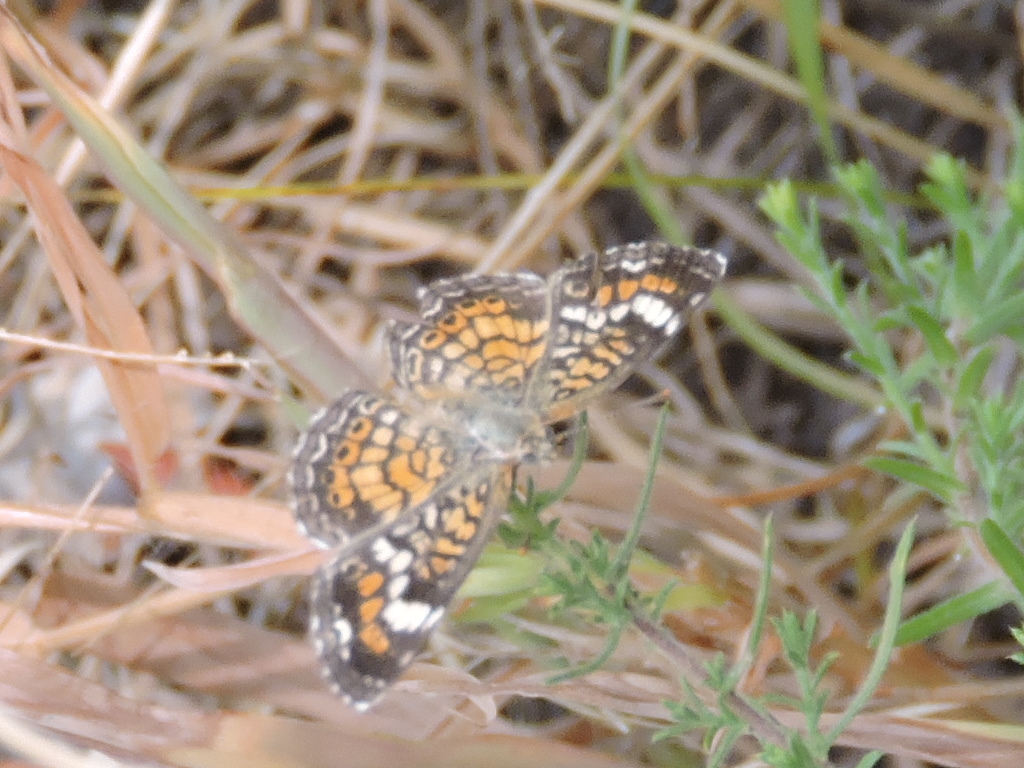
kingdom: Animalia
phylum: Arthropoda
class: Insecta
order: Lepidoptera
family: Nymphalidae
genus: Phyciodes
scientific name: Phyciodes phaon
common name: Phaon crescent
